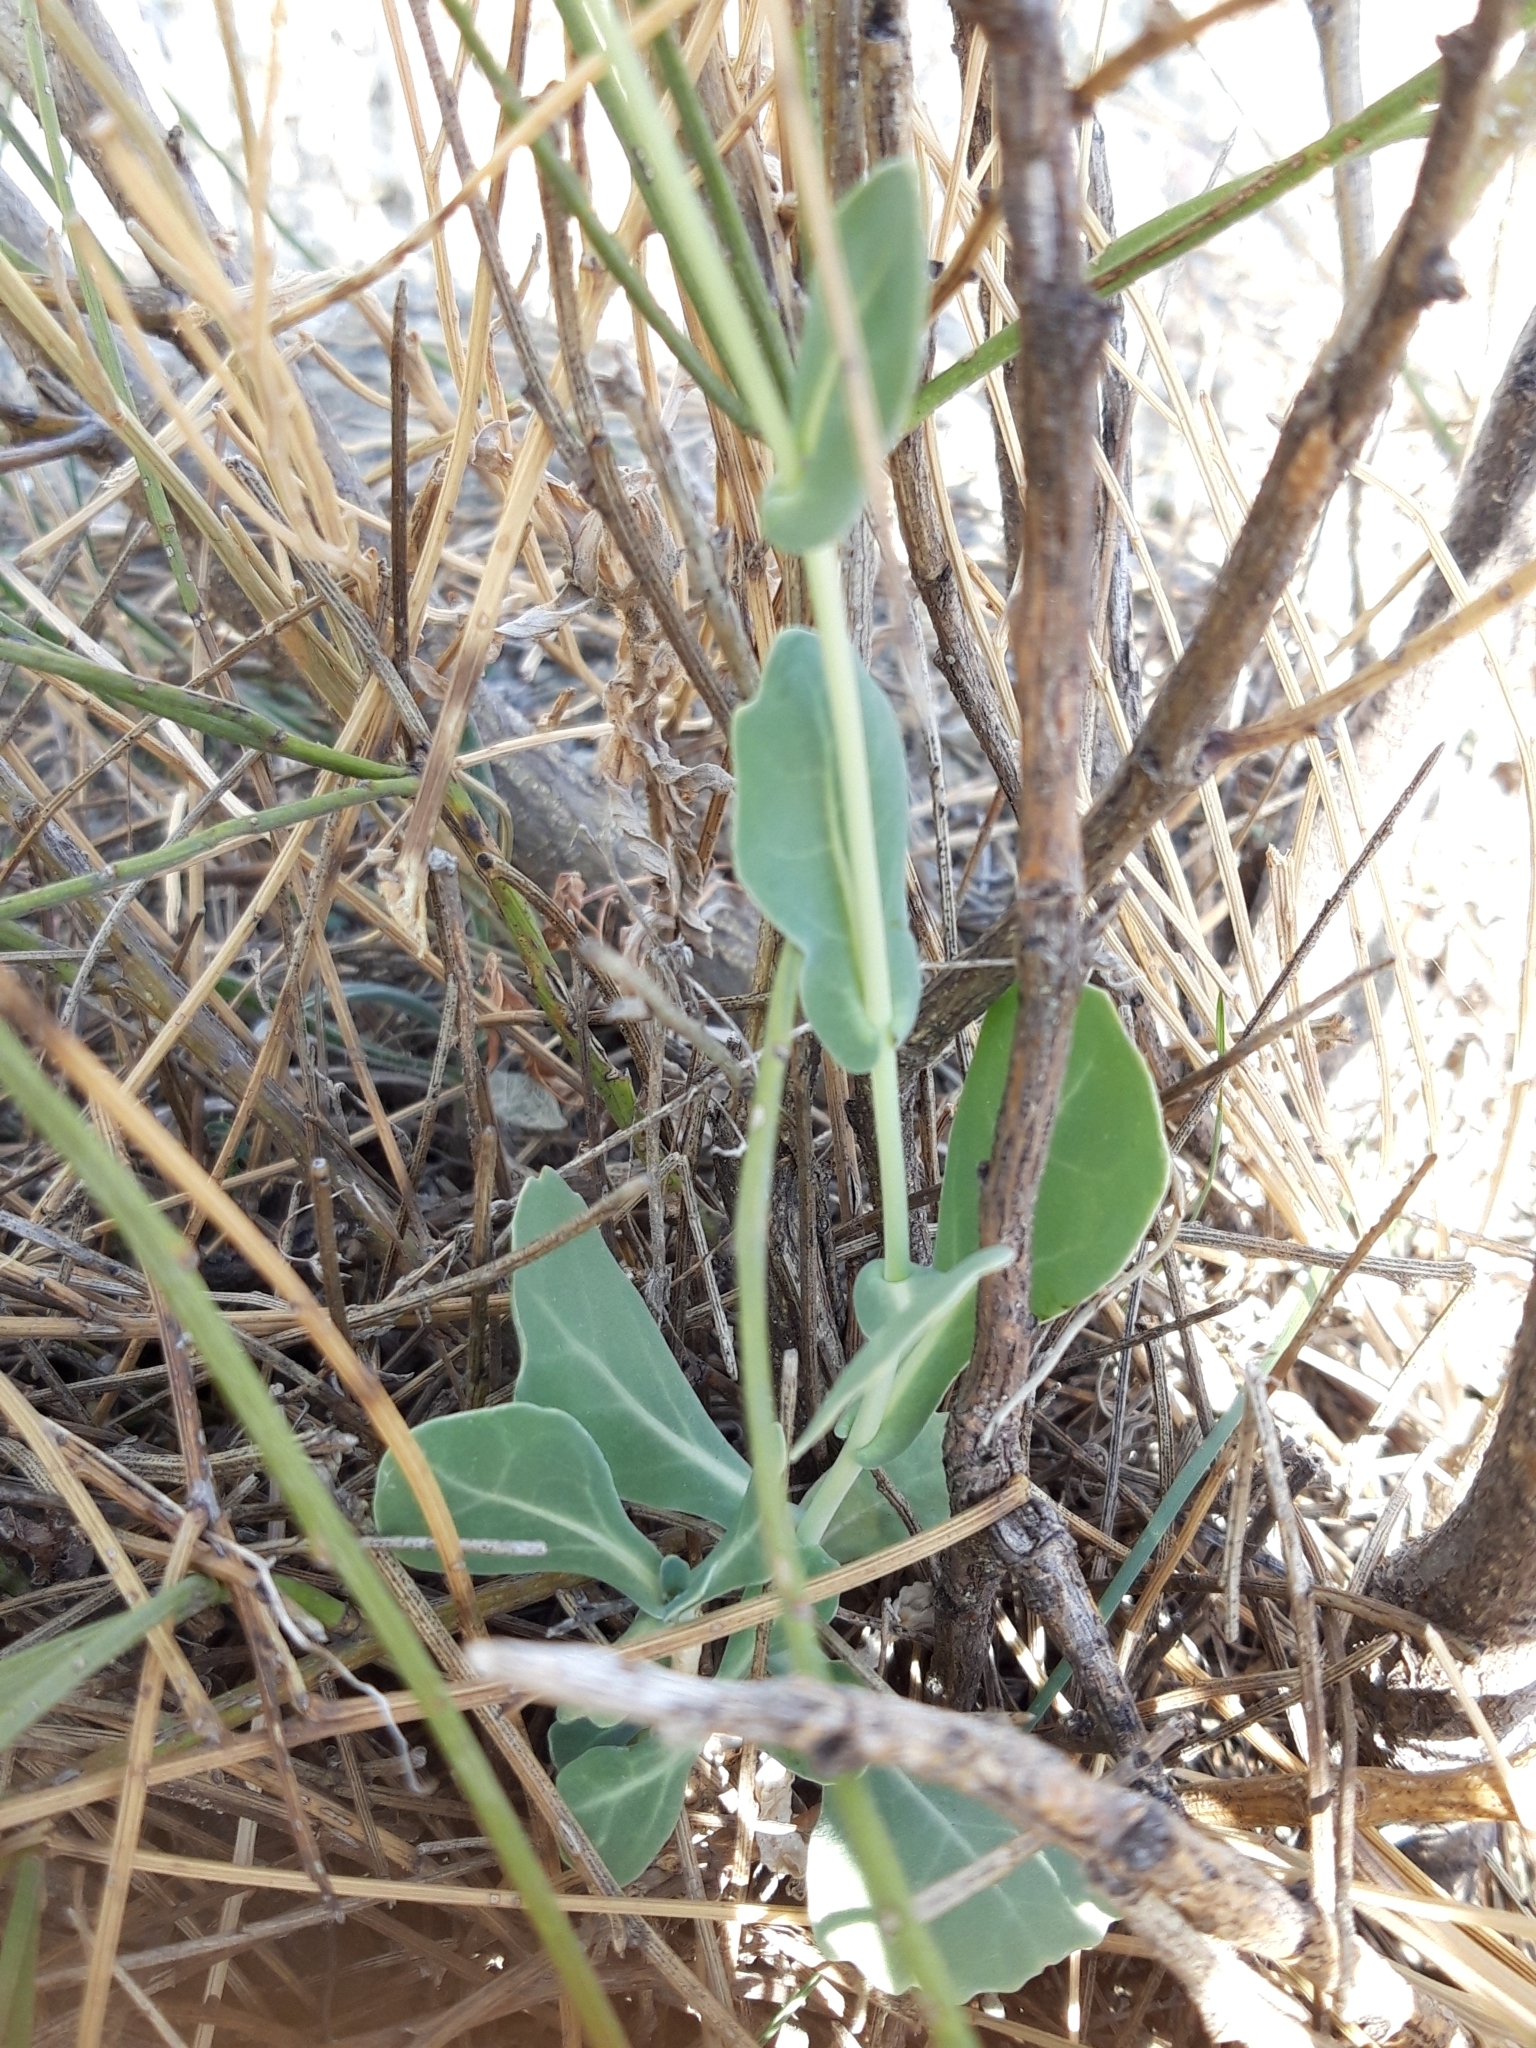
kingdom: Plantae
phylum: Tracheophyta
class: Magnoliopsida
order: Brassicales
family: Brassicaceae
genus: Moricandia
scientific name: Moricandia arvensis
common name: Purple mistress
